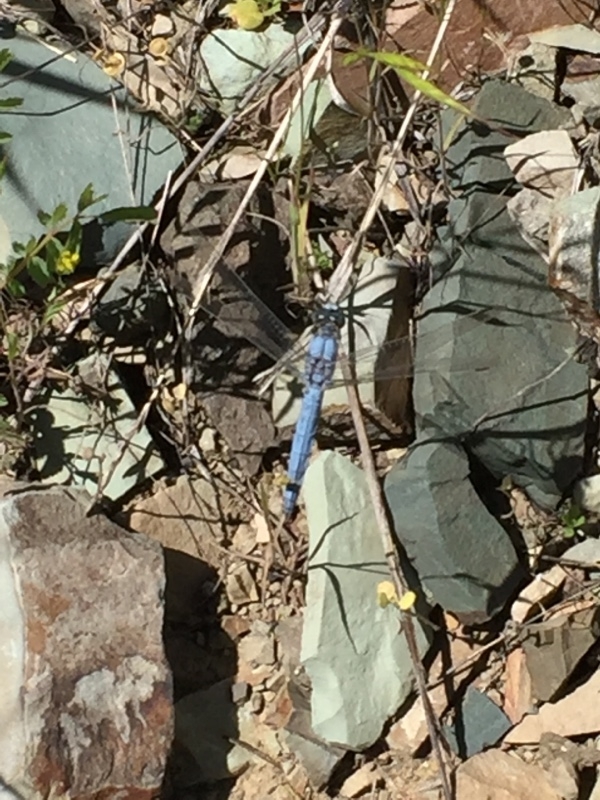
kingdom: Animalia
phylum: Arthropoda
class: Insecta
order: Odonata
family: Libellulidae
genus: Orthetrum
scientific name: Orthetrum brunneum
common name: Southern skimmer
